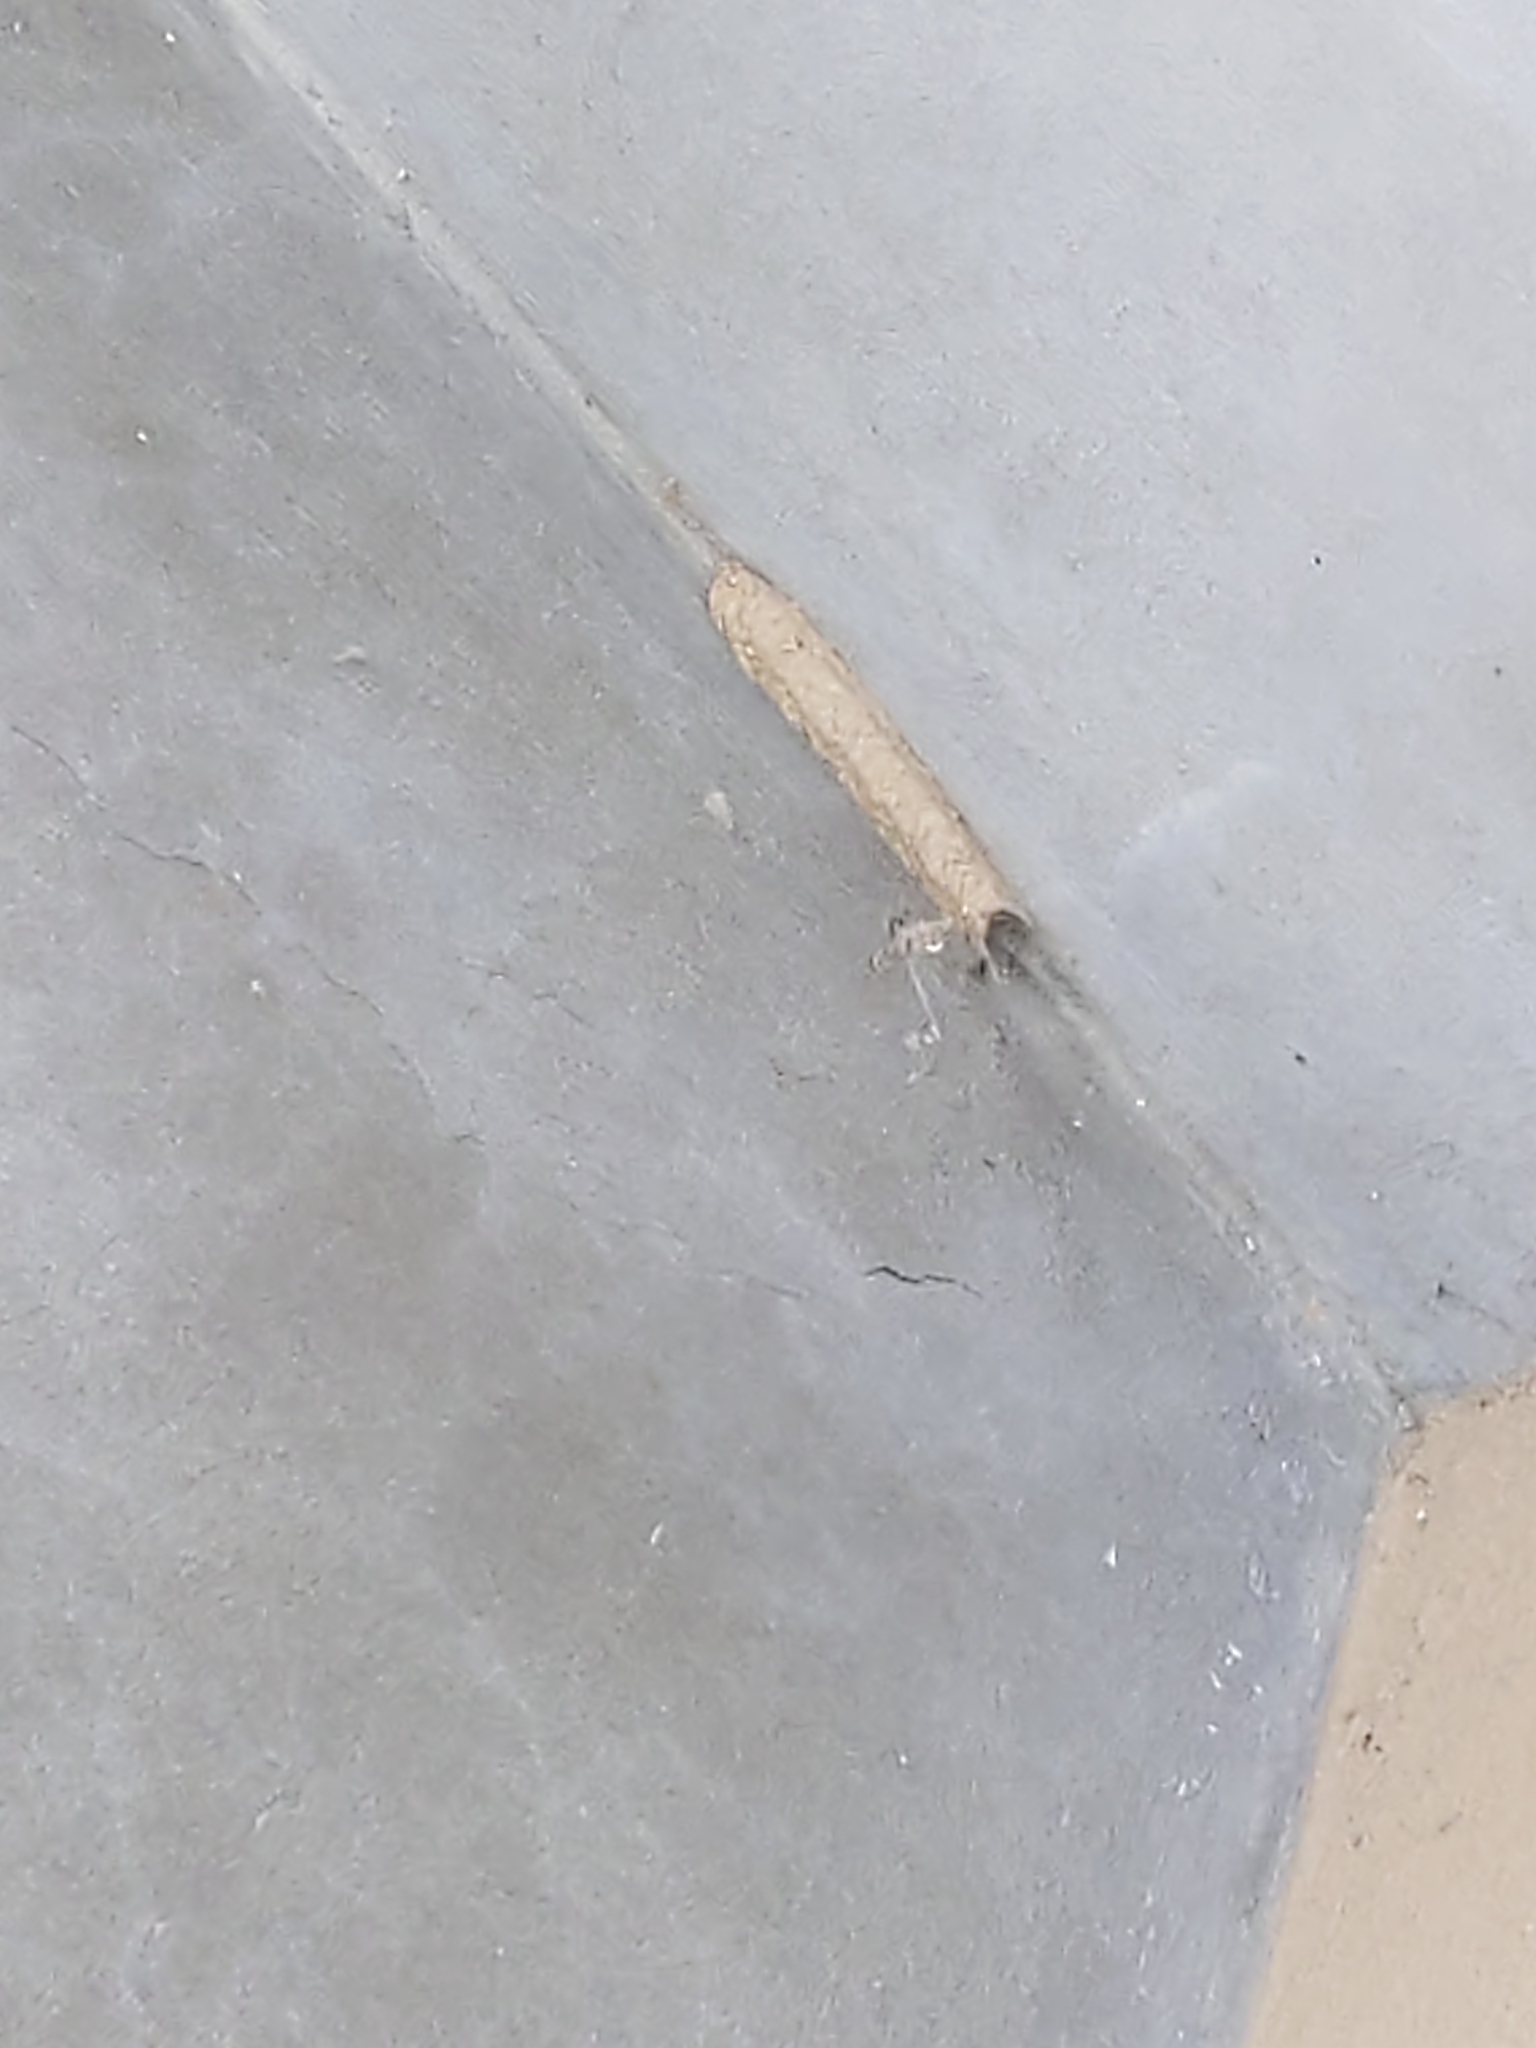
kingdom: Animalia
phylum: Arthropoda
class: Insecta
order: Hymenoptera
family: Crabronidae
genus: Trypoxylon
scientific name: Trypoxylon politum
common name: Organ-pipe mud-dauber wasp
